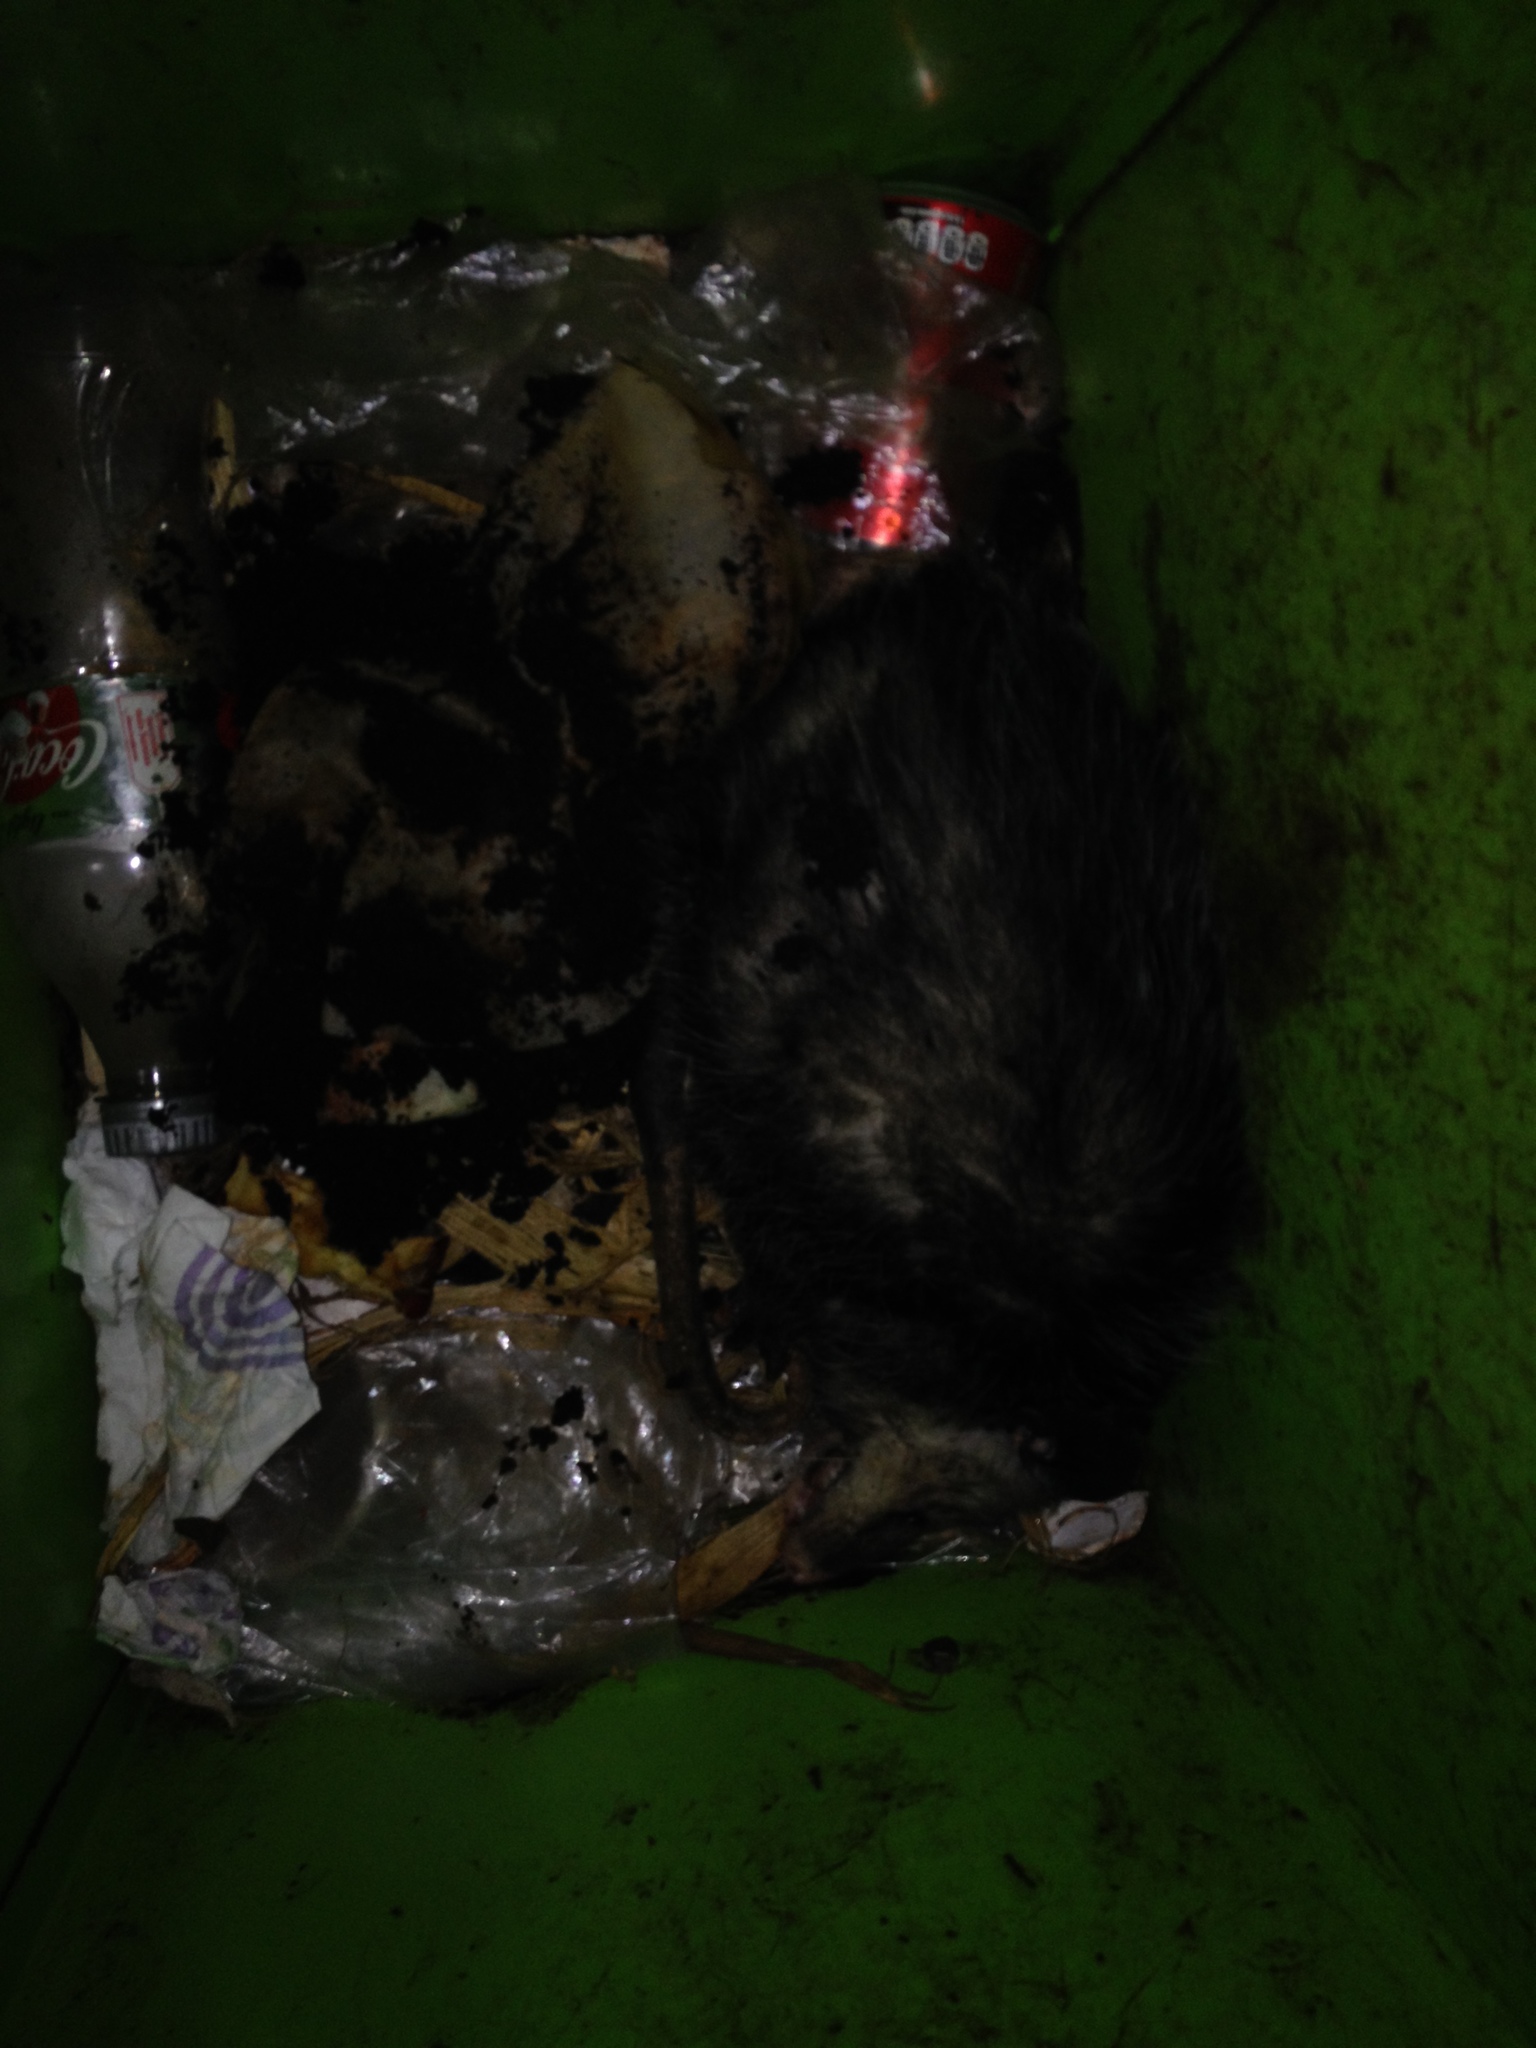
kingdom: Animalia
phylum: Chordata
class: Mammalia
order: Didelphimorphia
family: Didelphidae
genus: Didelphis
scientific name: Didelphis virginiana
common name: Virginia opossum
